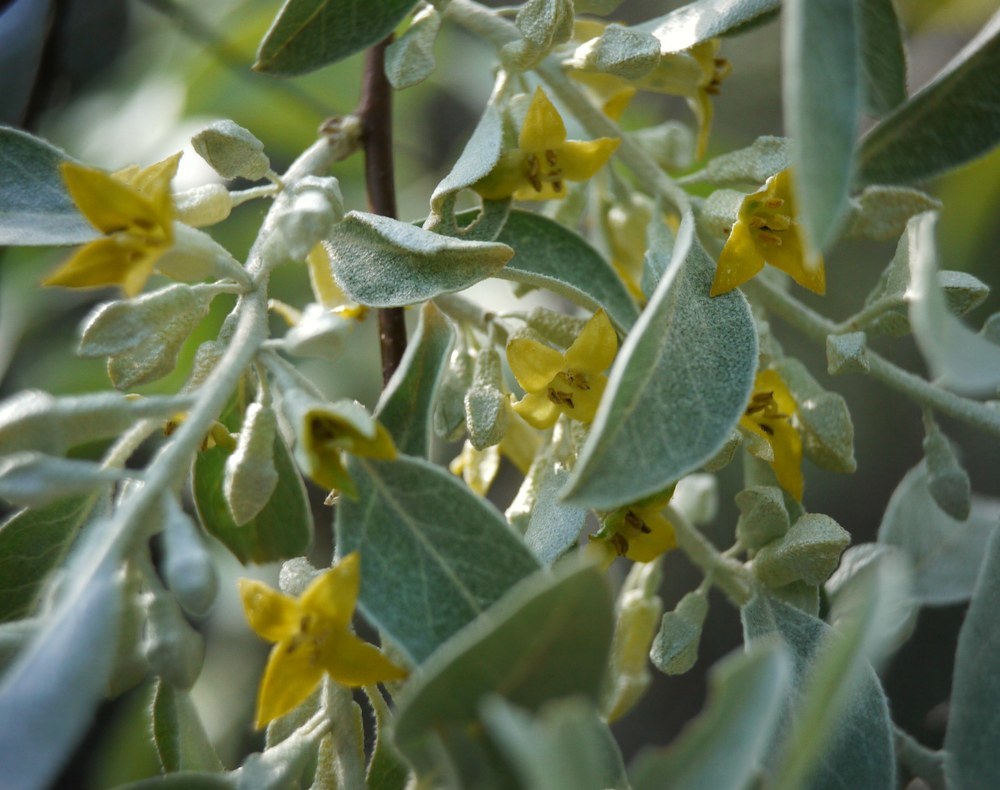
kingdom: Plantae
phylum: Tracheophyta
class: Magnoliopsida
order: Rosales
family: Elaeagnaceae
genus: Elaeagnus
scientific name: Elaeagnus angustifolia
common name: Russian olive
